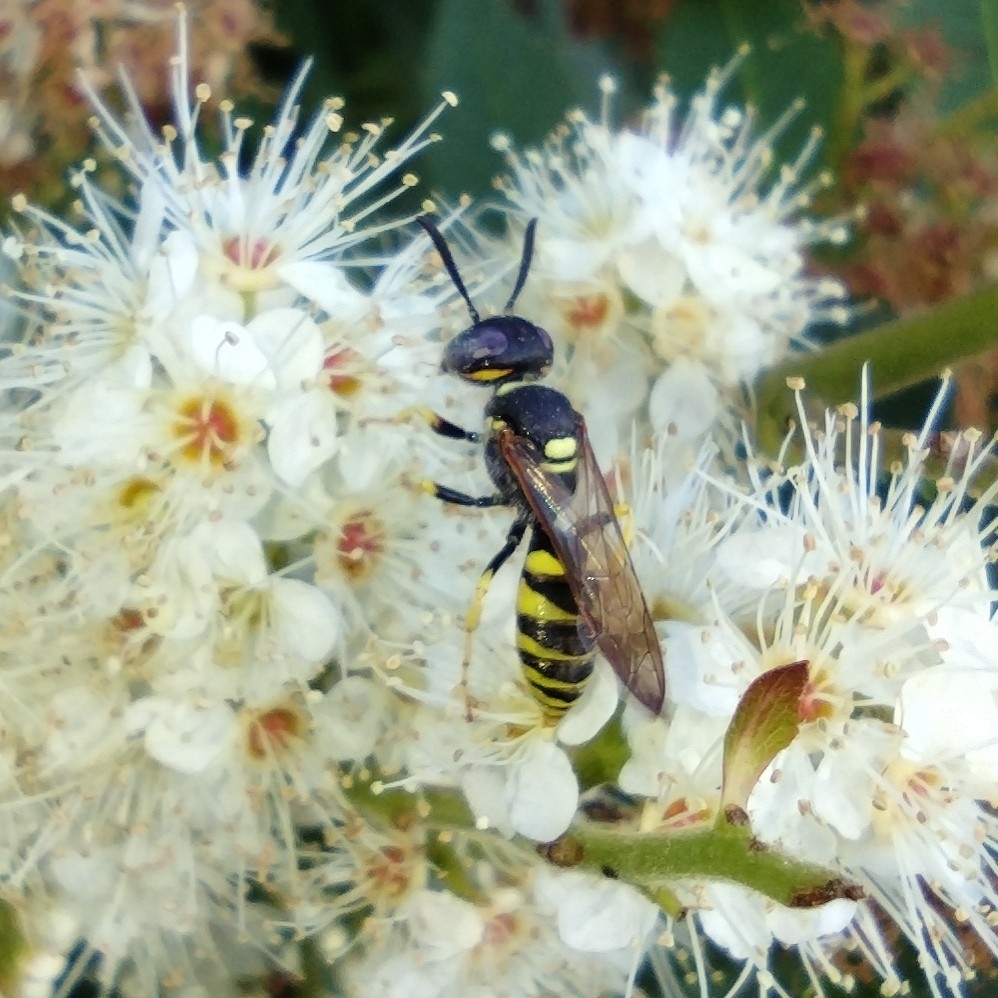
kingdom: Animalia
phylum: Arthropoda
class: Insecta
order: Hymenoptera
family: Crabronidae
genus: Philanthus
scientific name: Philanthus triangulum
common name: Bee wolf
